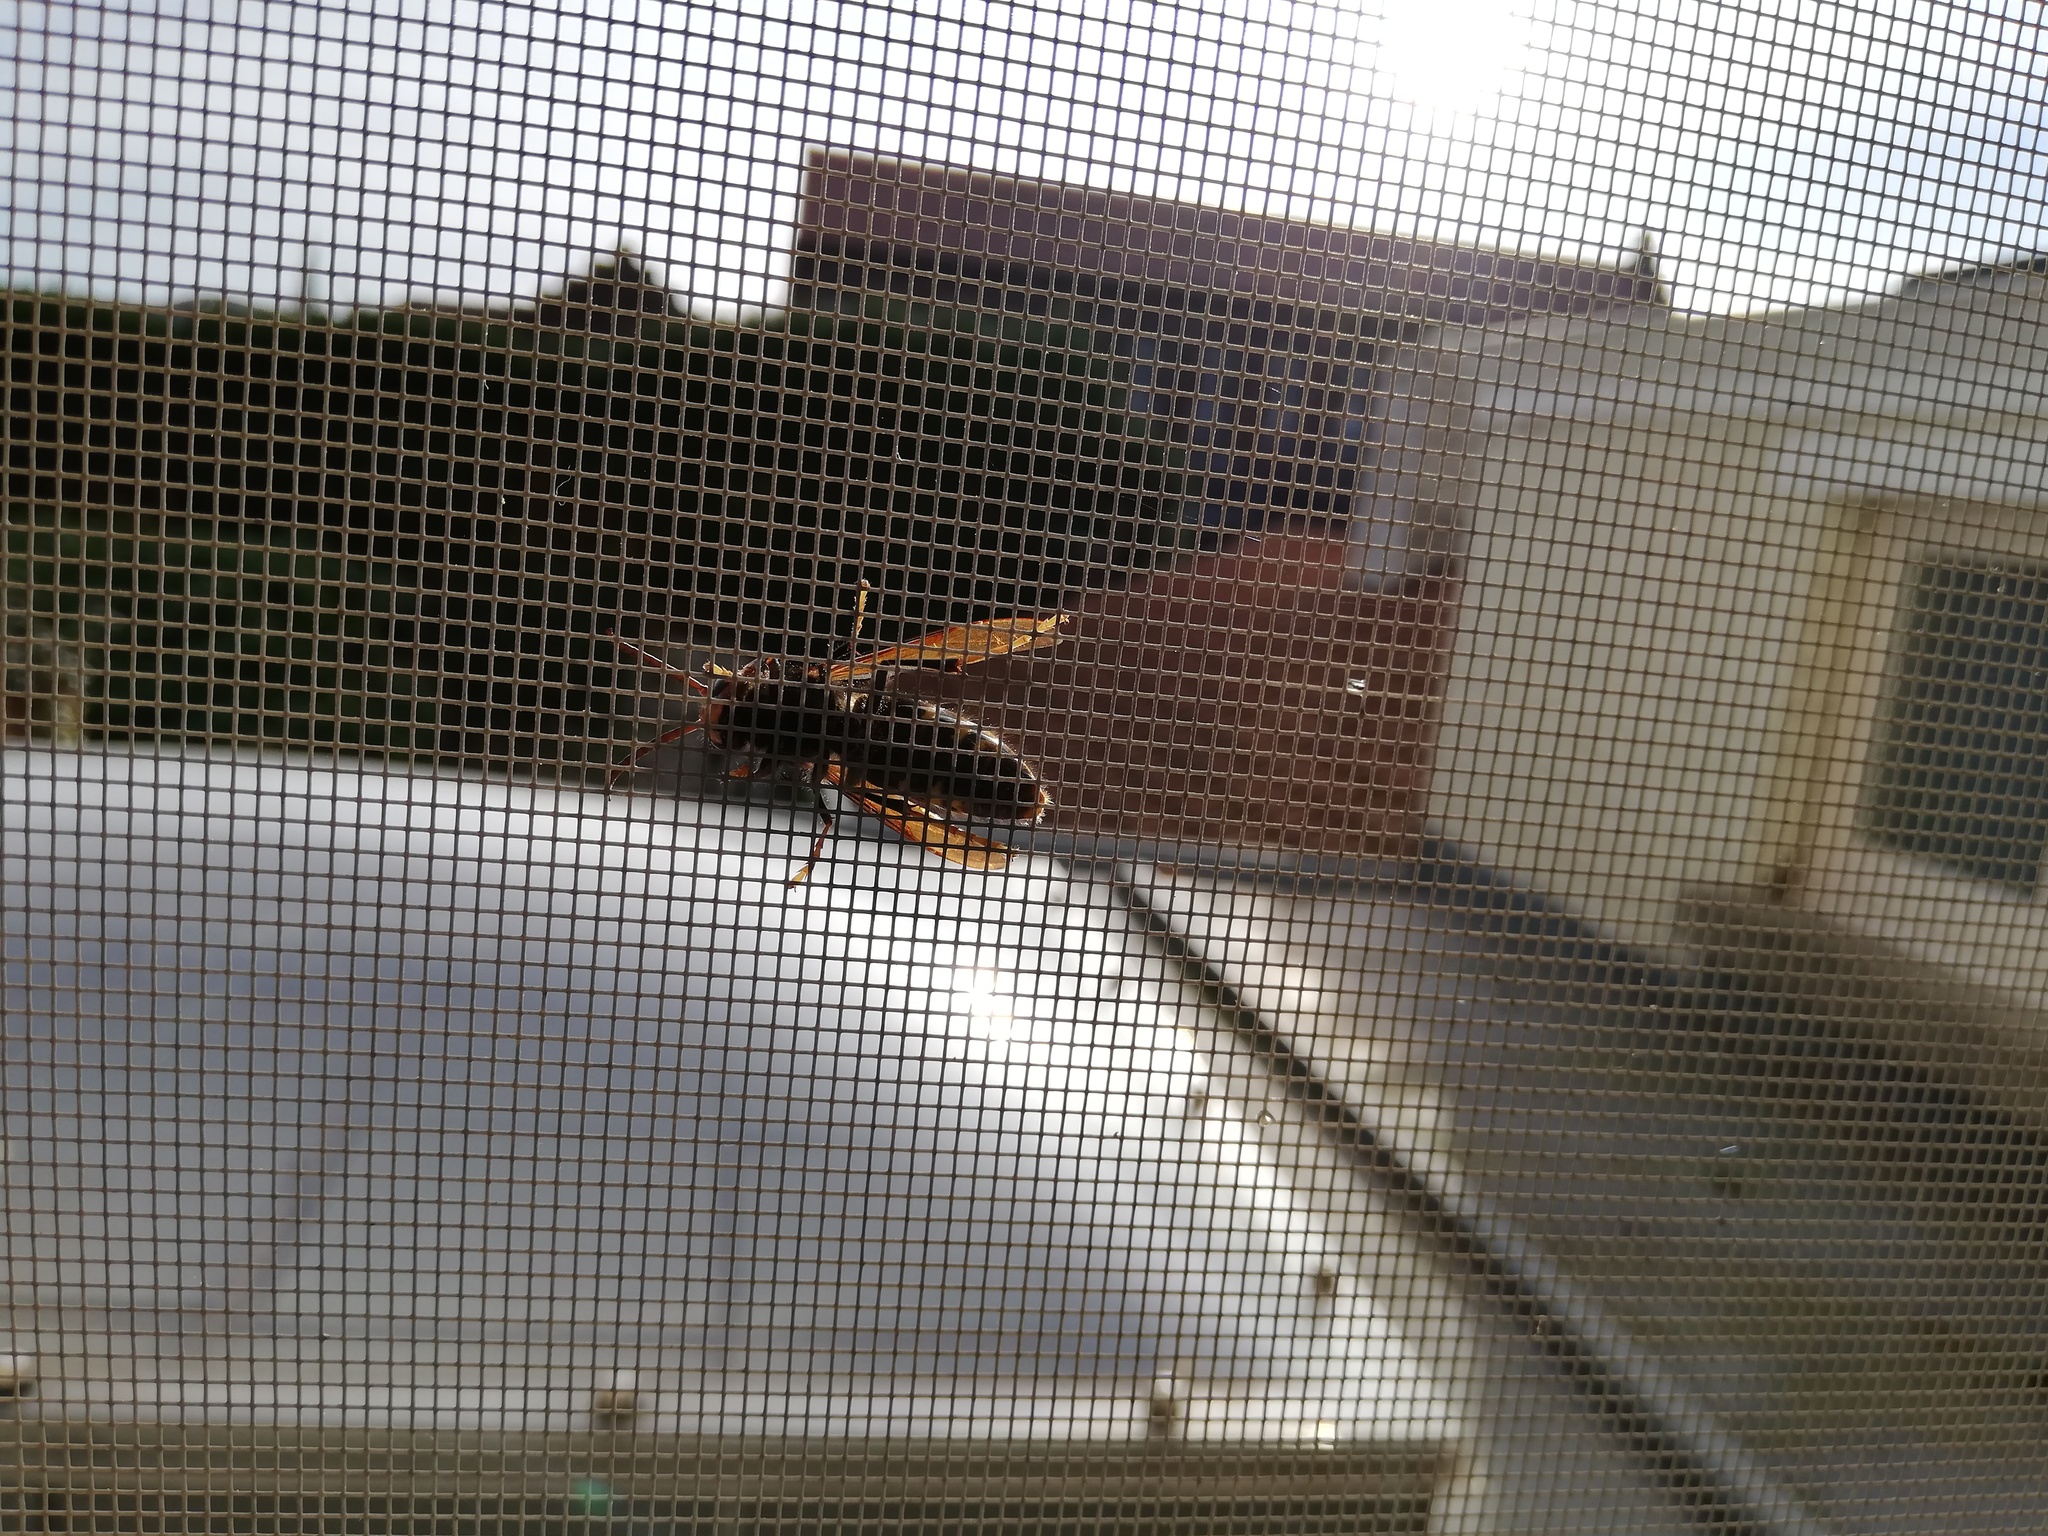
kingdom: Animalia
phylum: Arthropoda
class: Insecta
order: Hymenoptera
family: Vespidae
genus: Vespa
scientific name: Vespa velutina
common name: Asian hornet
